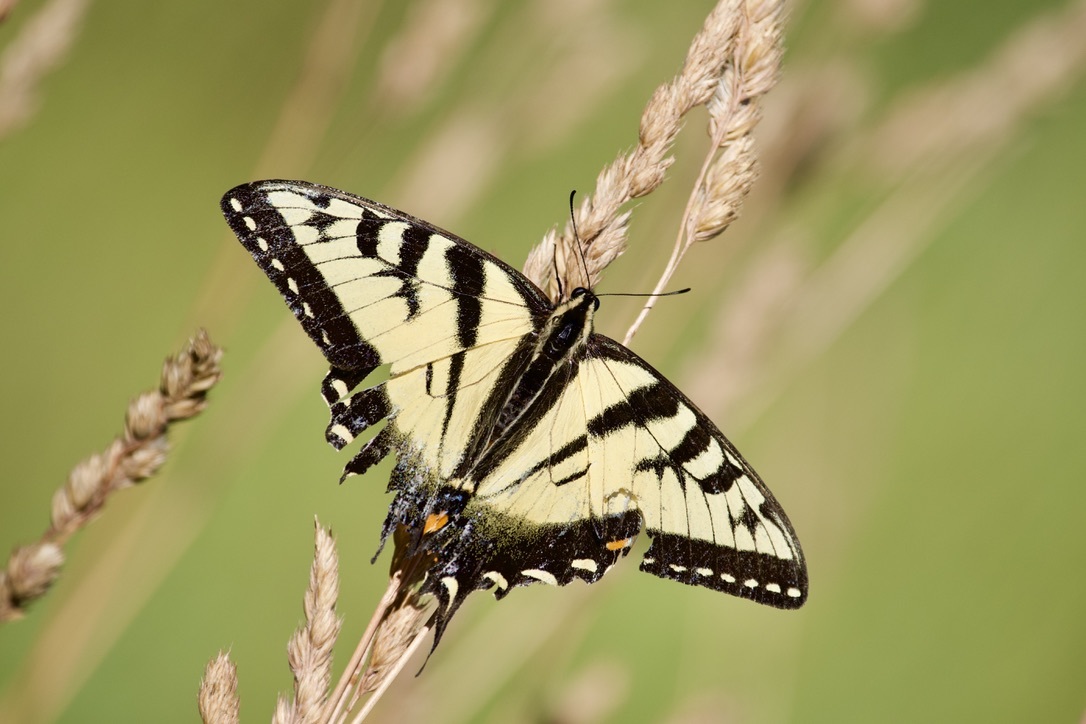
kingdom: Animalia
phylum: Arthropoda
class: Insecta
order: Lepidoptera
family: Papilionidae
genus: Papilio
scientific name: Papilio
